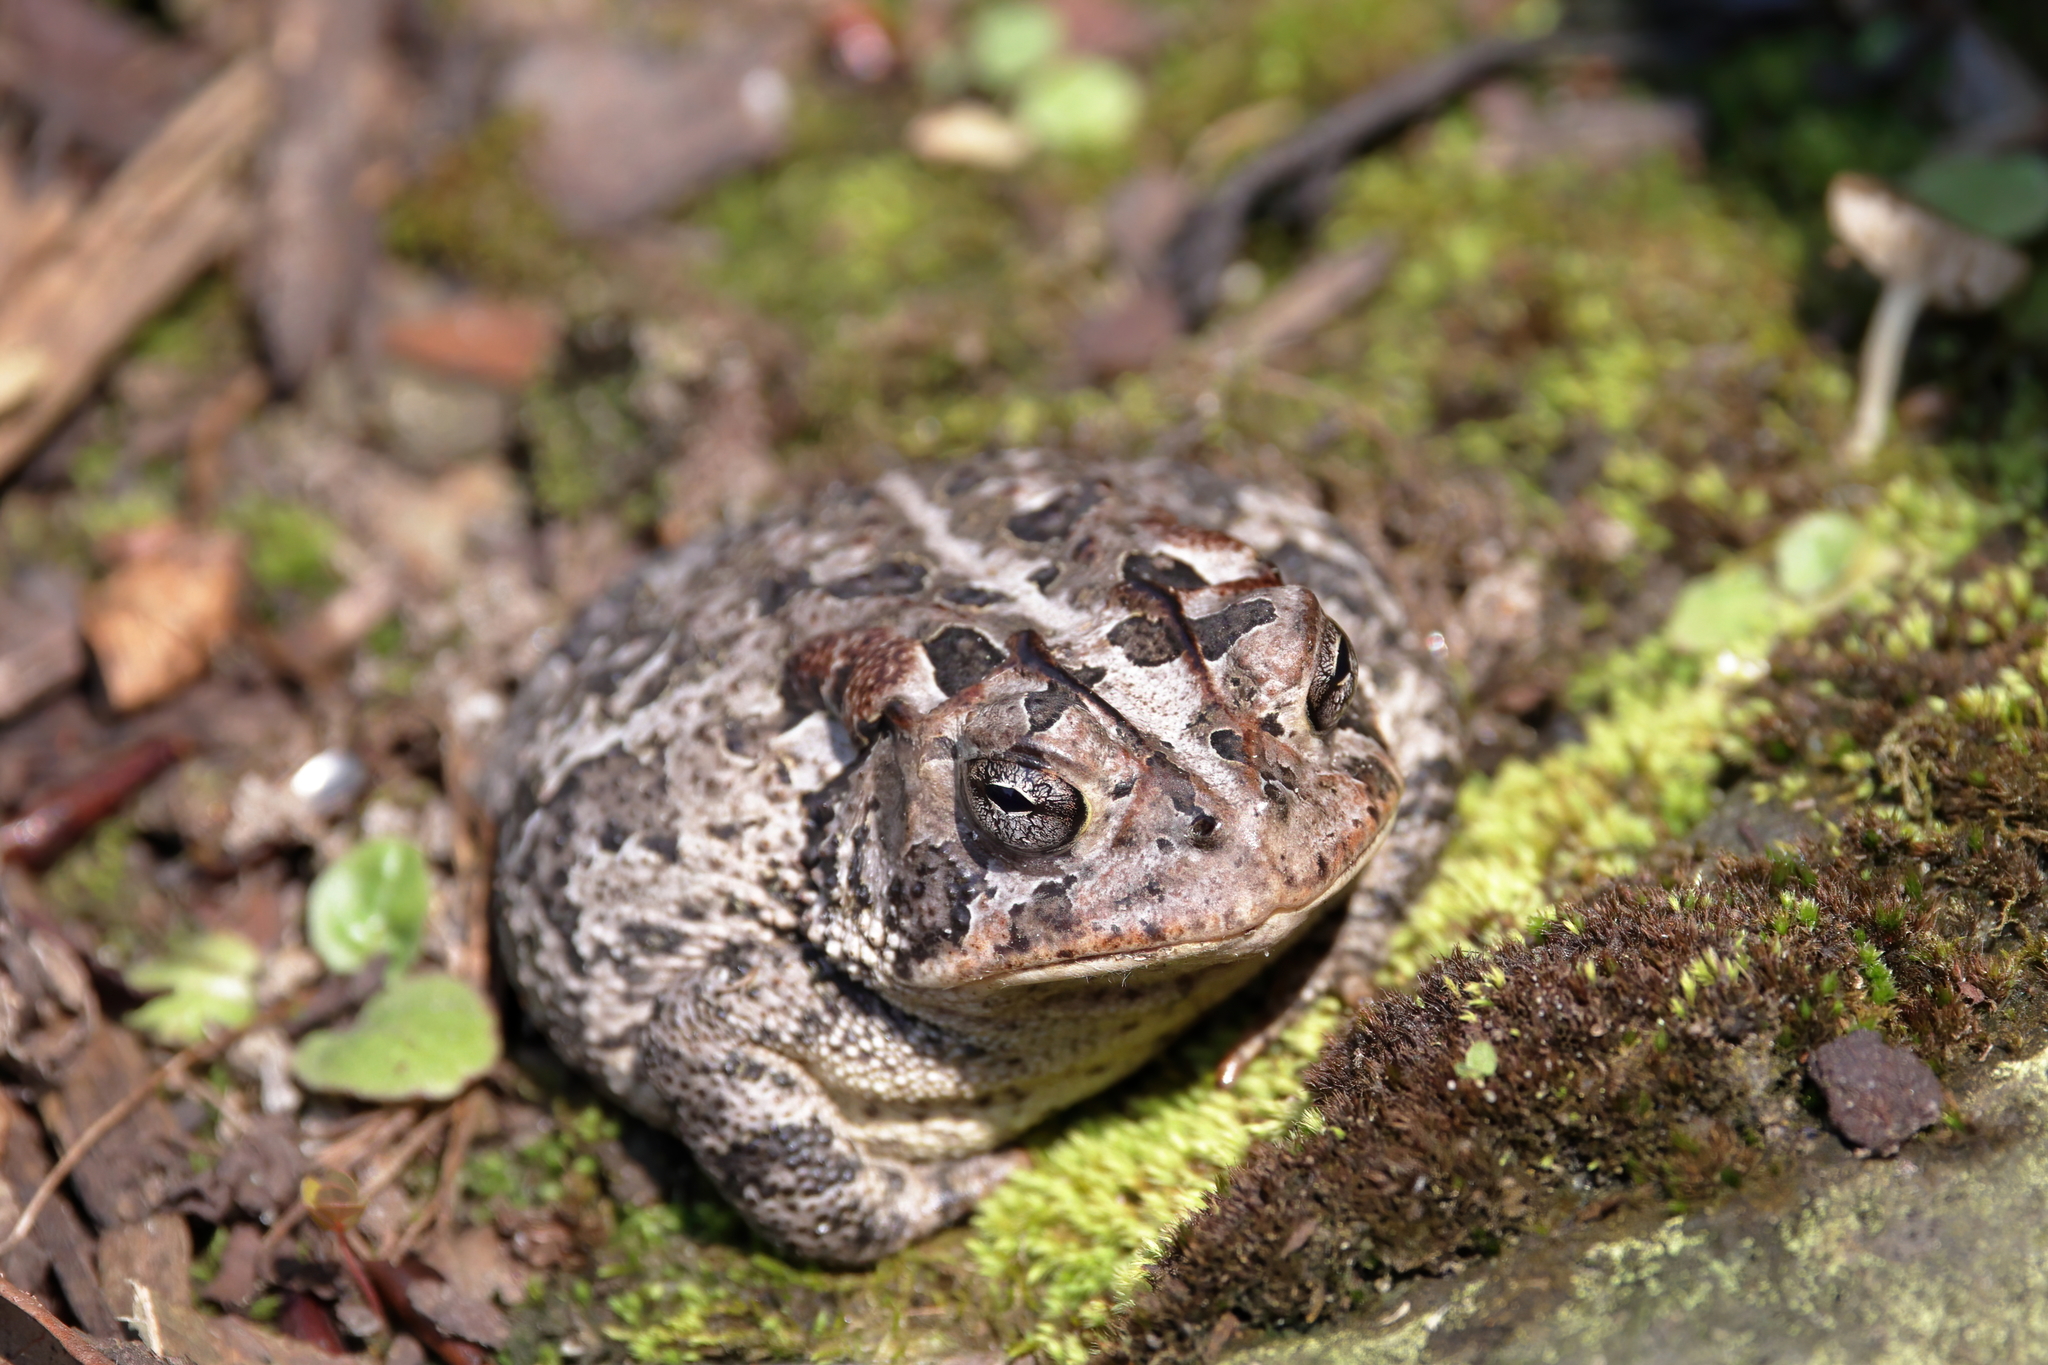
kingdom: Animalia
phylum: Chordata
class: Amphibia
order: Anura
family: Bufonidae
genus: Anaxyrus
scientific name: Anaxyrus terrestris
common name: Southern toad
